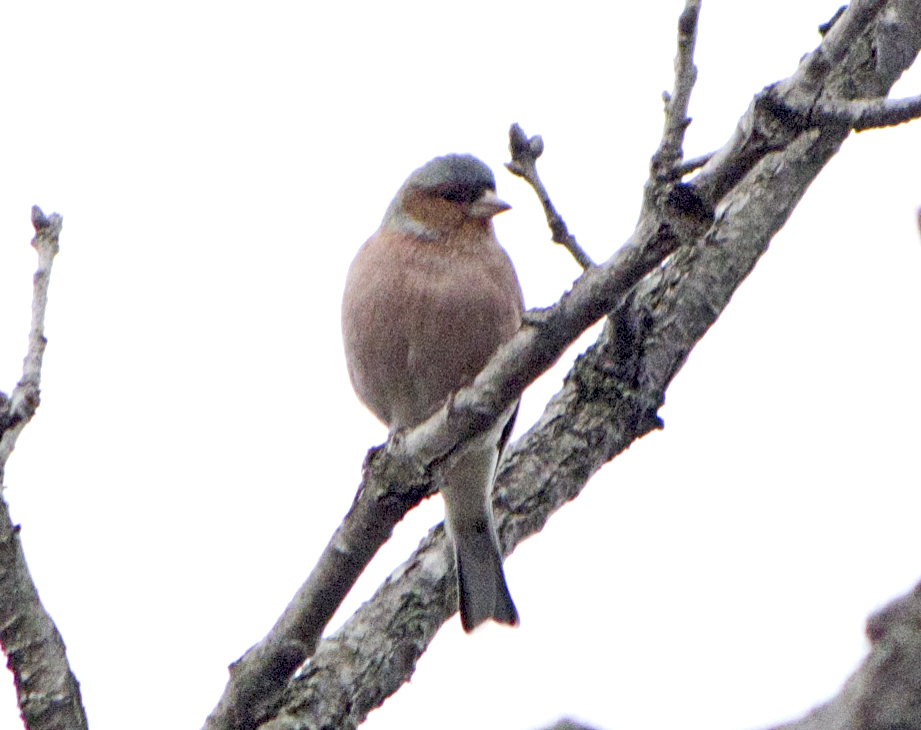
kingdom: Animalia
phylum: Chordata
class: Aves
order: Passeriformes
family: Fringillidae
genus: Fringilla
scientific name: Fringilla coelebs
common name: Common chaffinch
